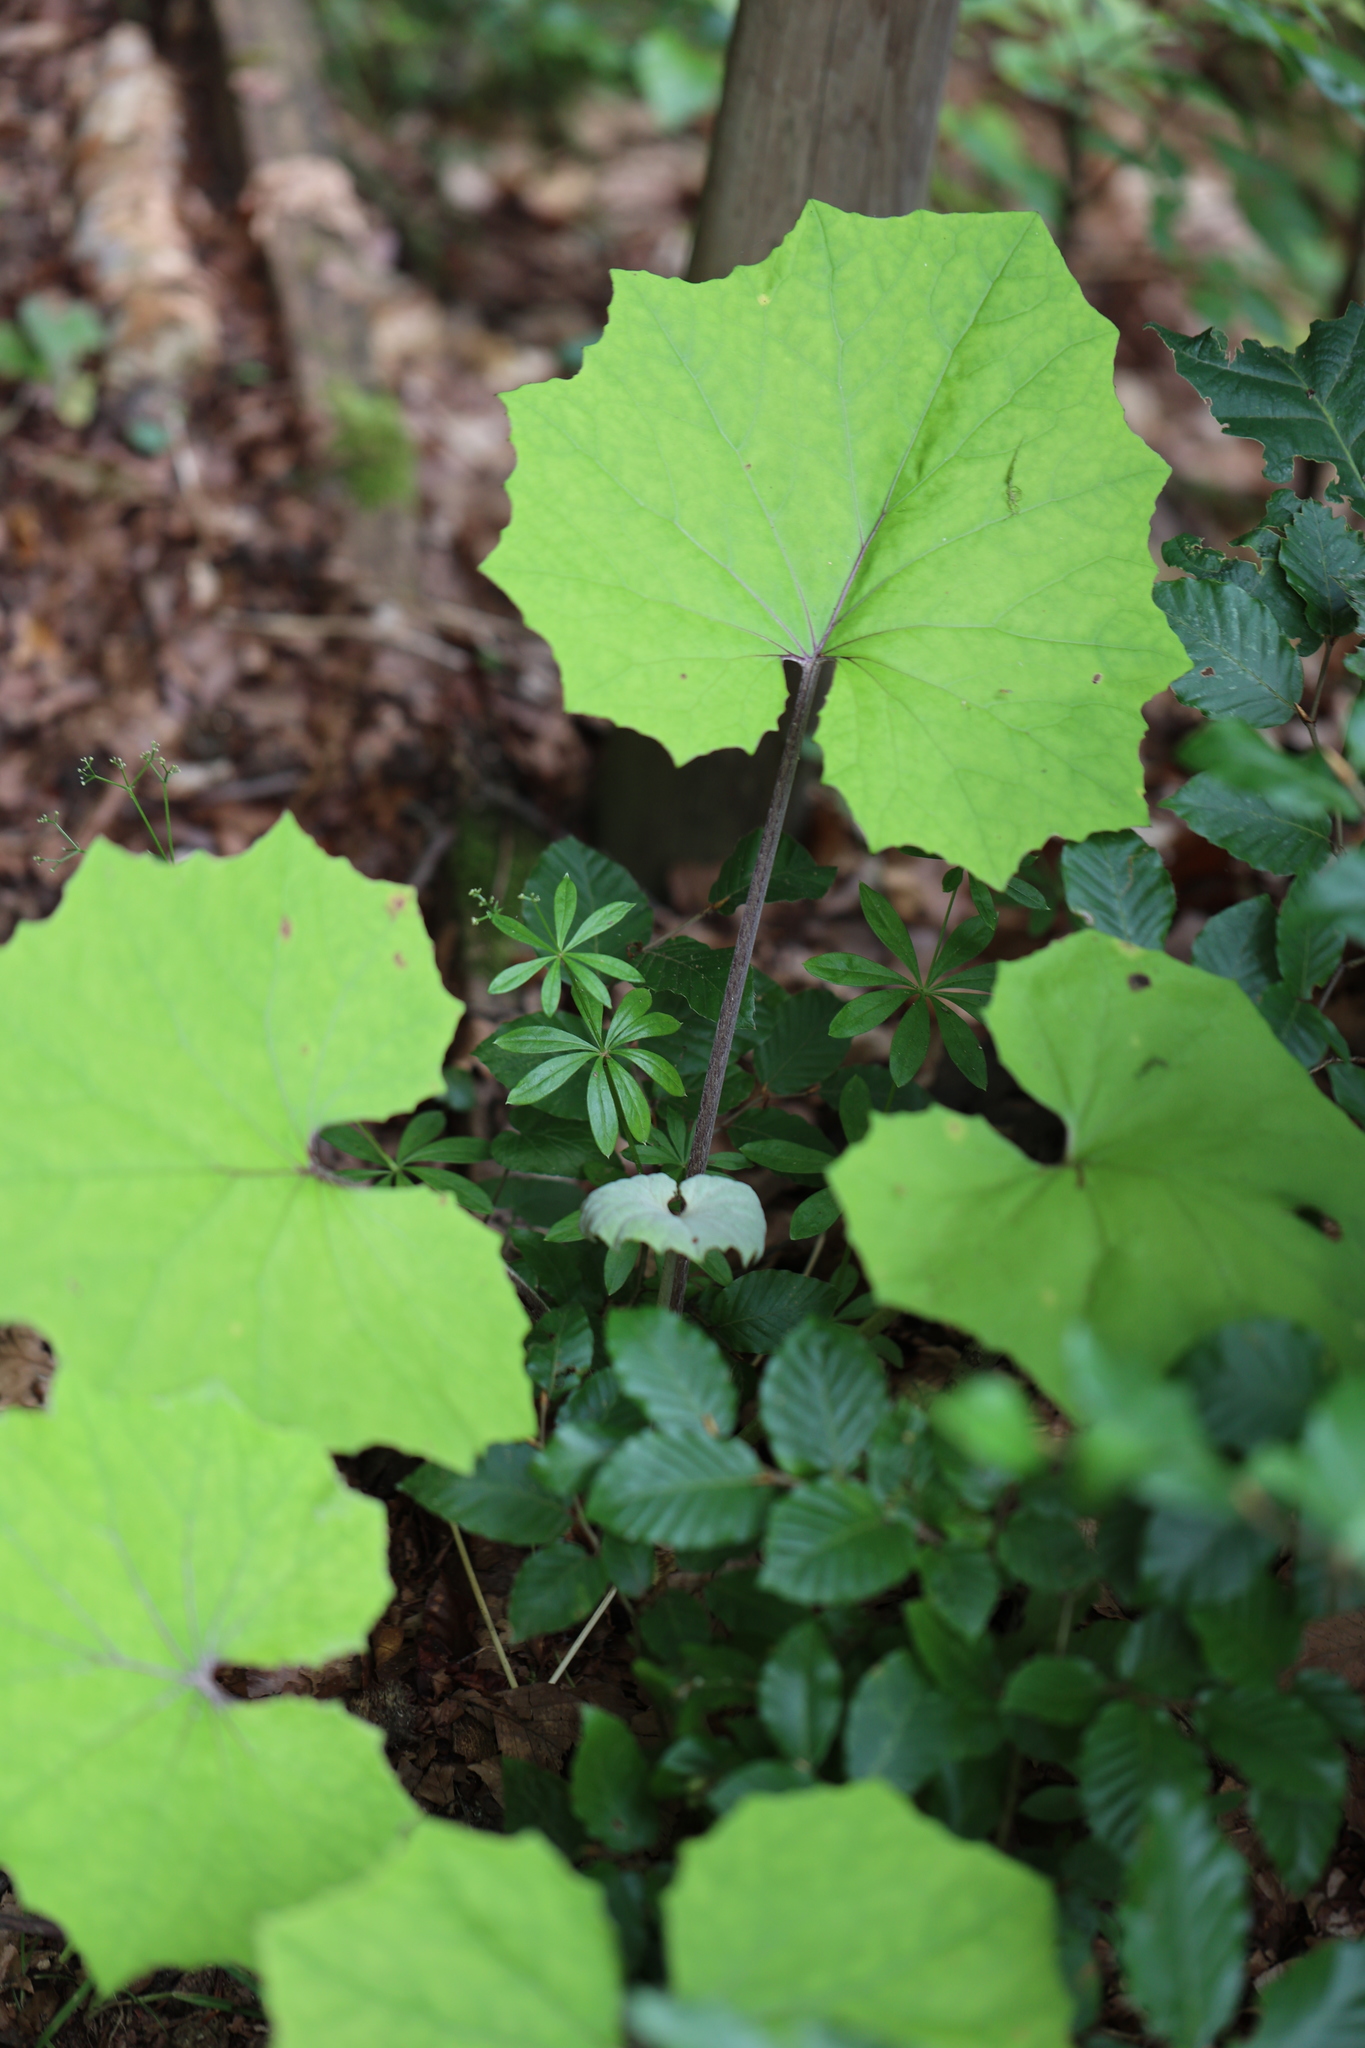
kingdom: Plantae
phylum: Tracheophyta
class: Magnoliopsida
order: Asterales
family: Asteraceae
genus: Tussilago
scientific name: Tussilago farfara
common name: Coltsfoot
